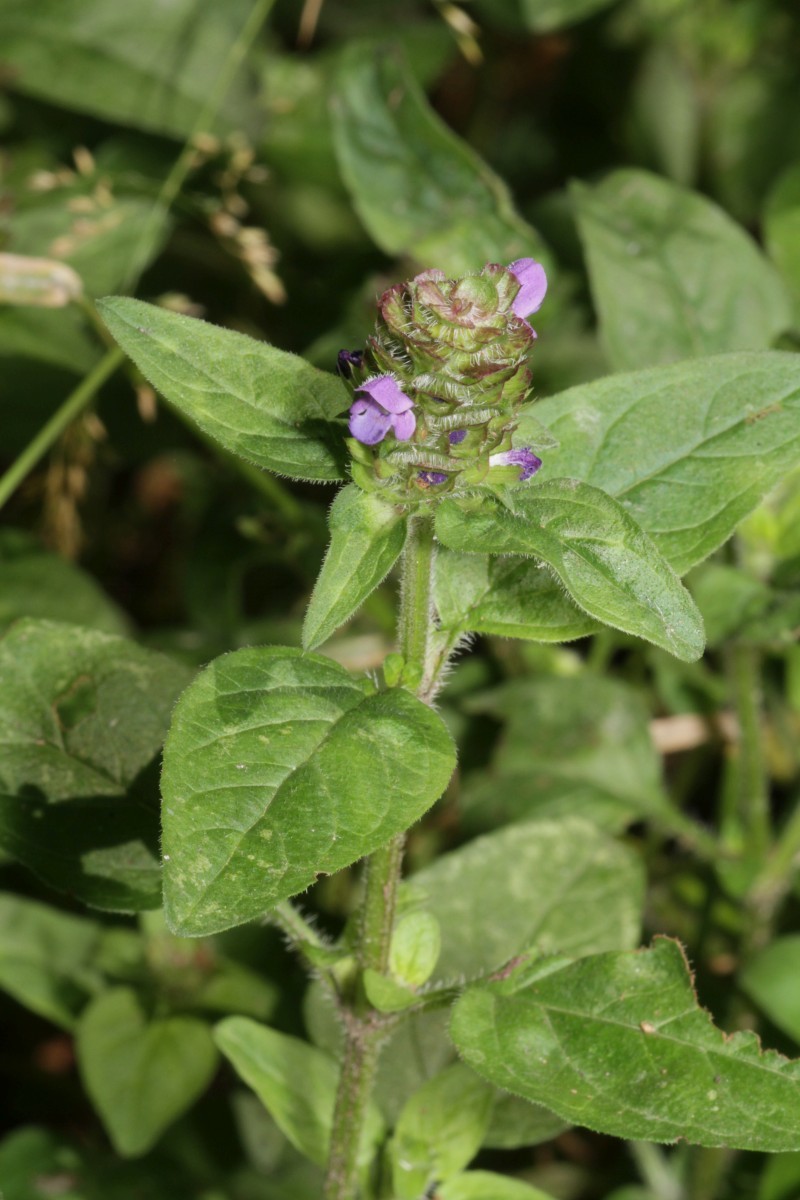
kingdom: Plantae
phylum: Tracheophyta
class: Magnoliopsida
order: Lamiales
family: Lamiaceae
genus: Prunella
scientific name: Prunella vulgaris
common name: Heal-all
